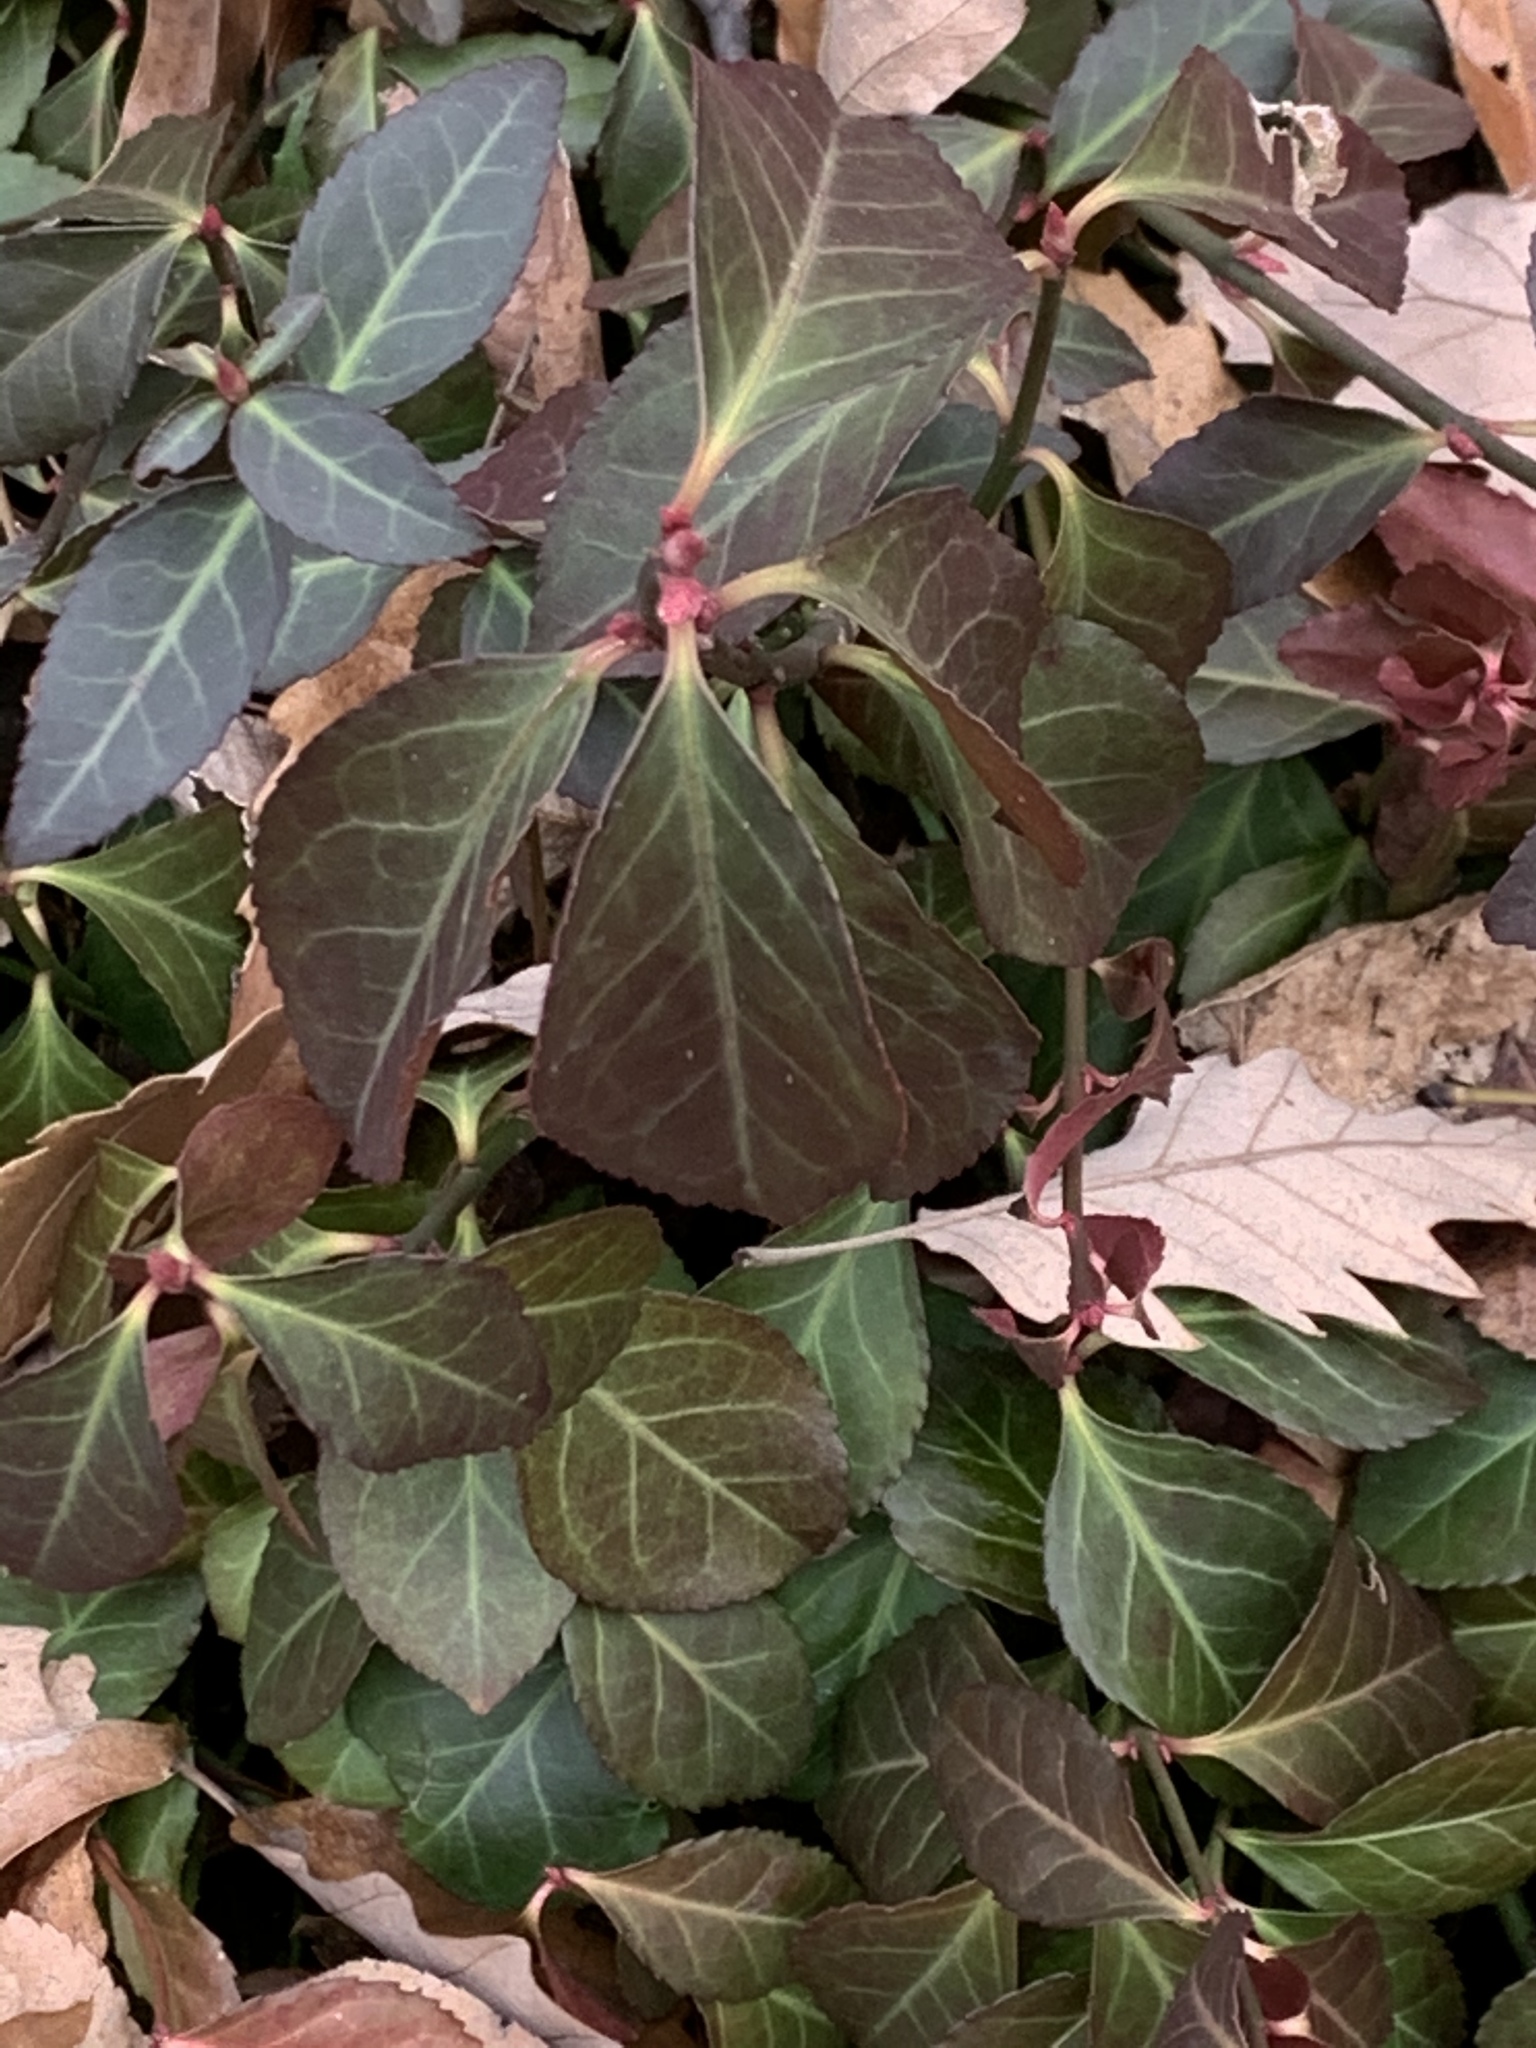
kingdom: Plantae
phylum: Tracheophyta
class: Magnoliopsida
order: Celastrales
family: Celastraceae
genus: Euonymus
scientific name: Euonymus fortunei
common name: Climbing euonymus
